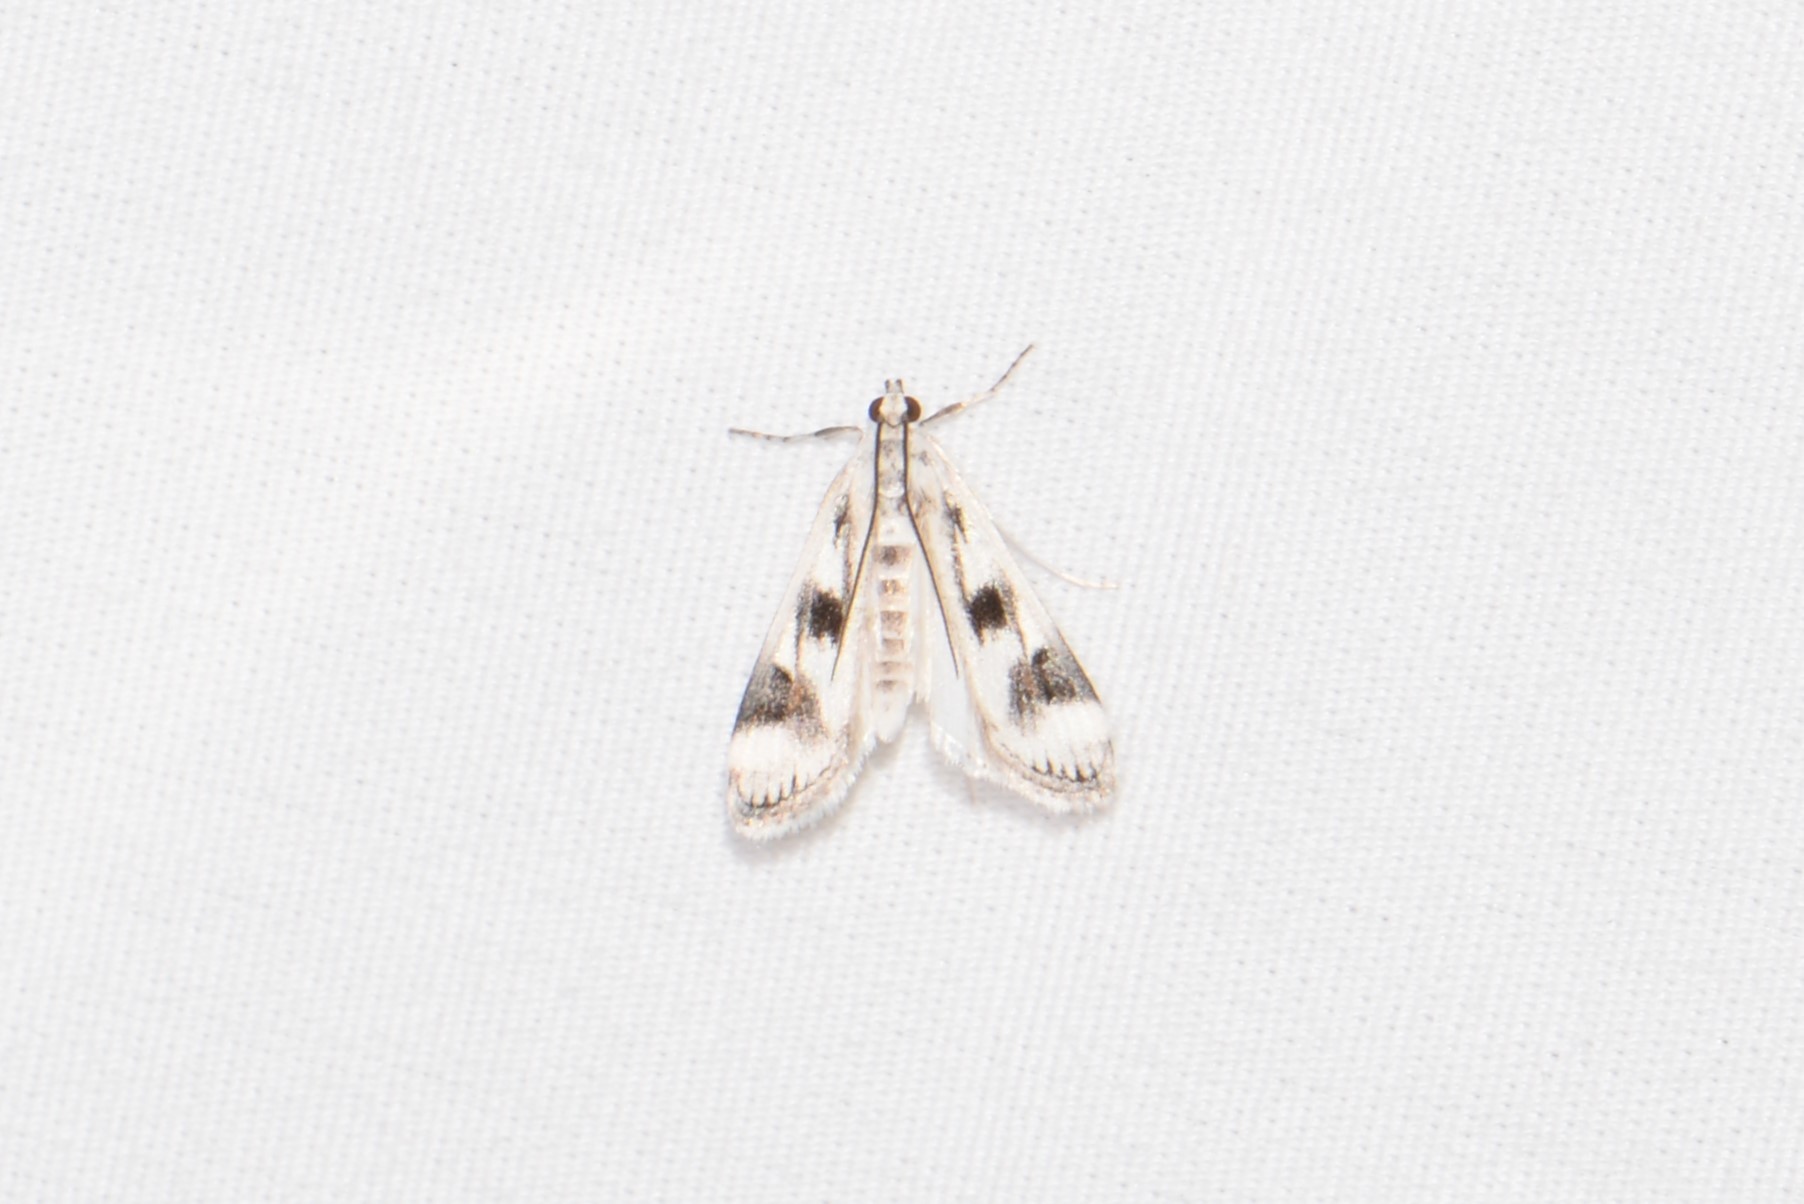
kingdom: Animalia
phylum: Arthropoda
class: Insecta
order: Lepidoptera
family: Crambidae
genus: Parapoynx
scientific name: Parapoynx maculalis
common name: Polymorphic pondweed moth
